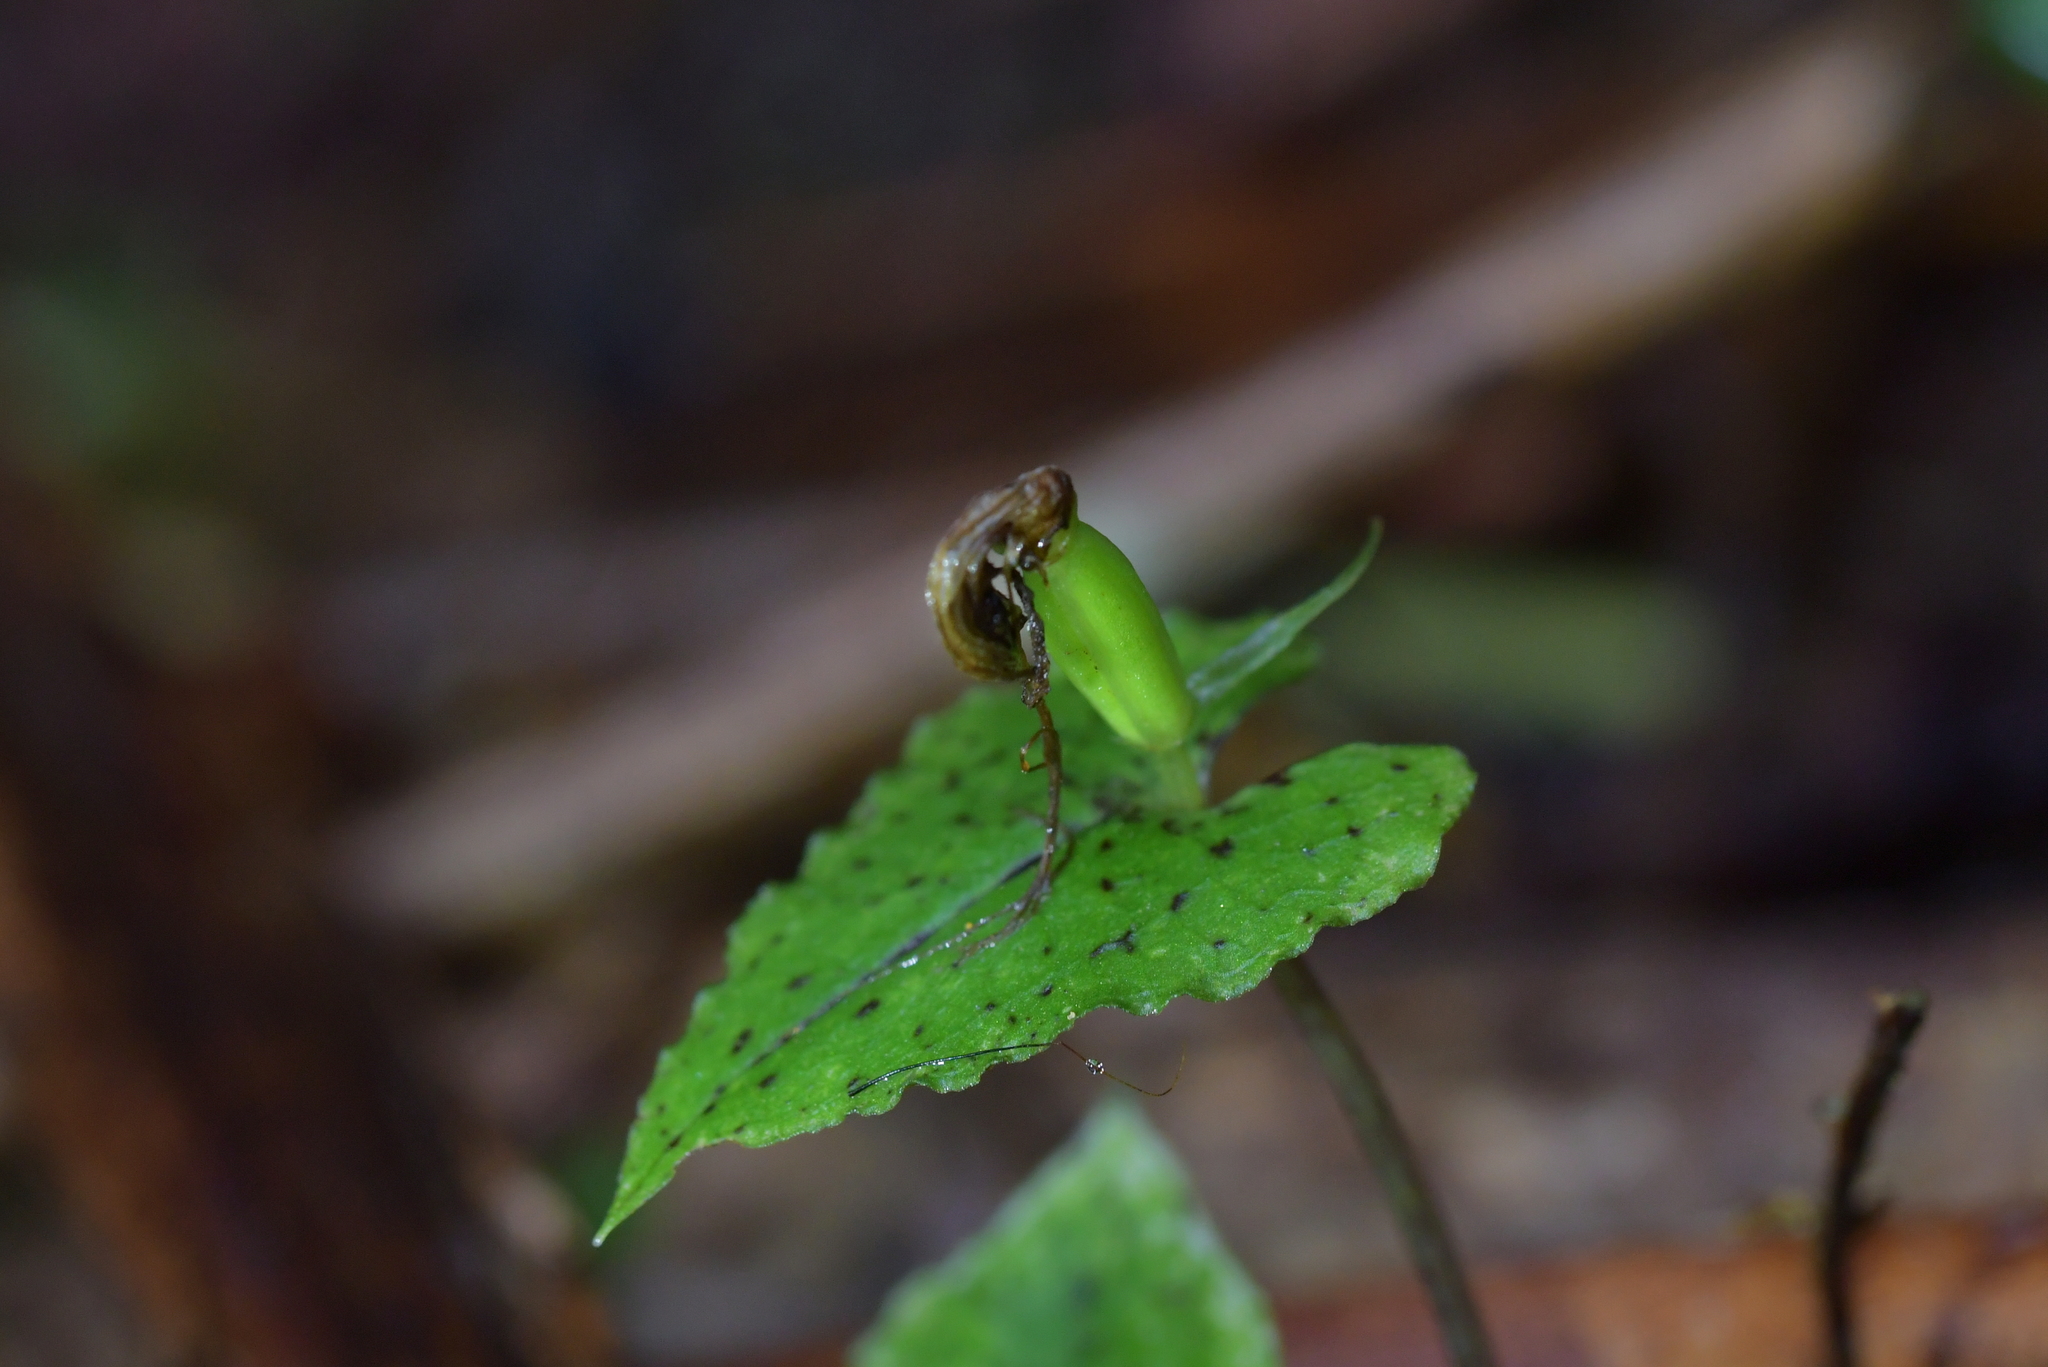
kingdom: Plantae
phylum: Tracheophyta
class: Liliopsida
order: Asparagales
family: Orchidaceae
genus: Corybas
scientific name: Corybas acuminatus
